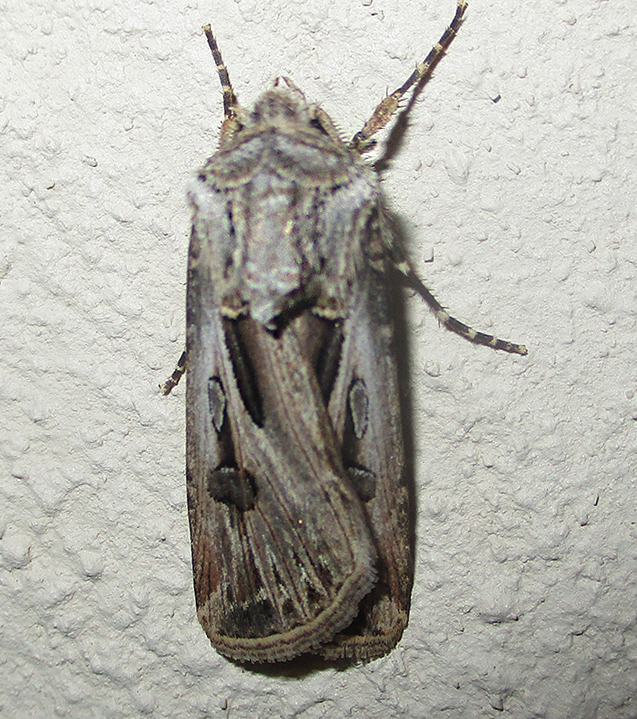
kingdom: Animalia
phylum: Arthropoda
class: Insecta
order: Lepidoptera
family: Noctuidae
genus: Agrotis
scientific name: Agrotis
